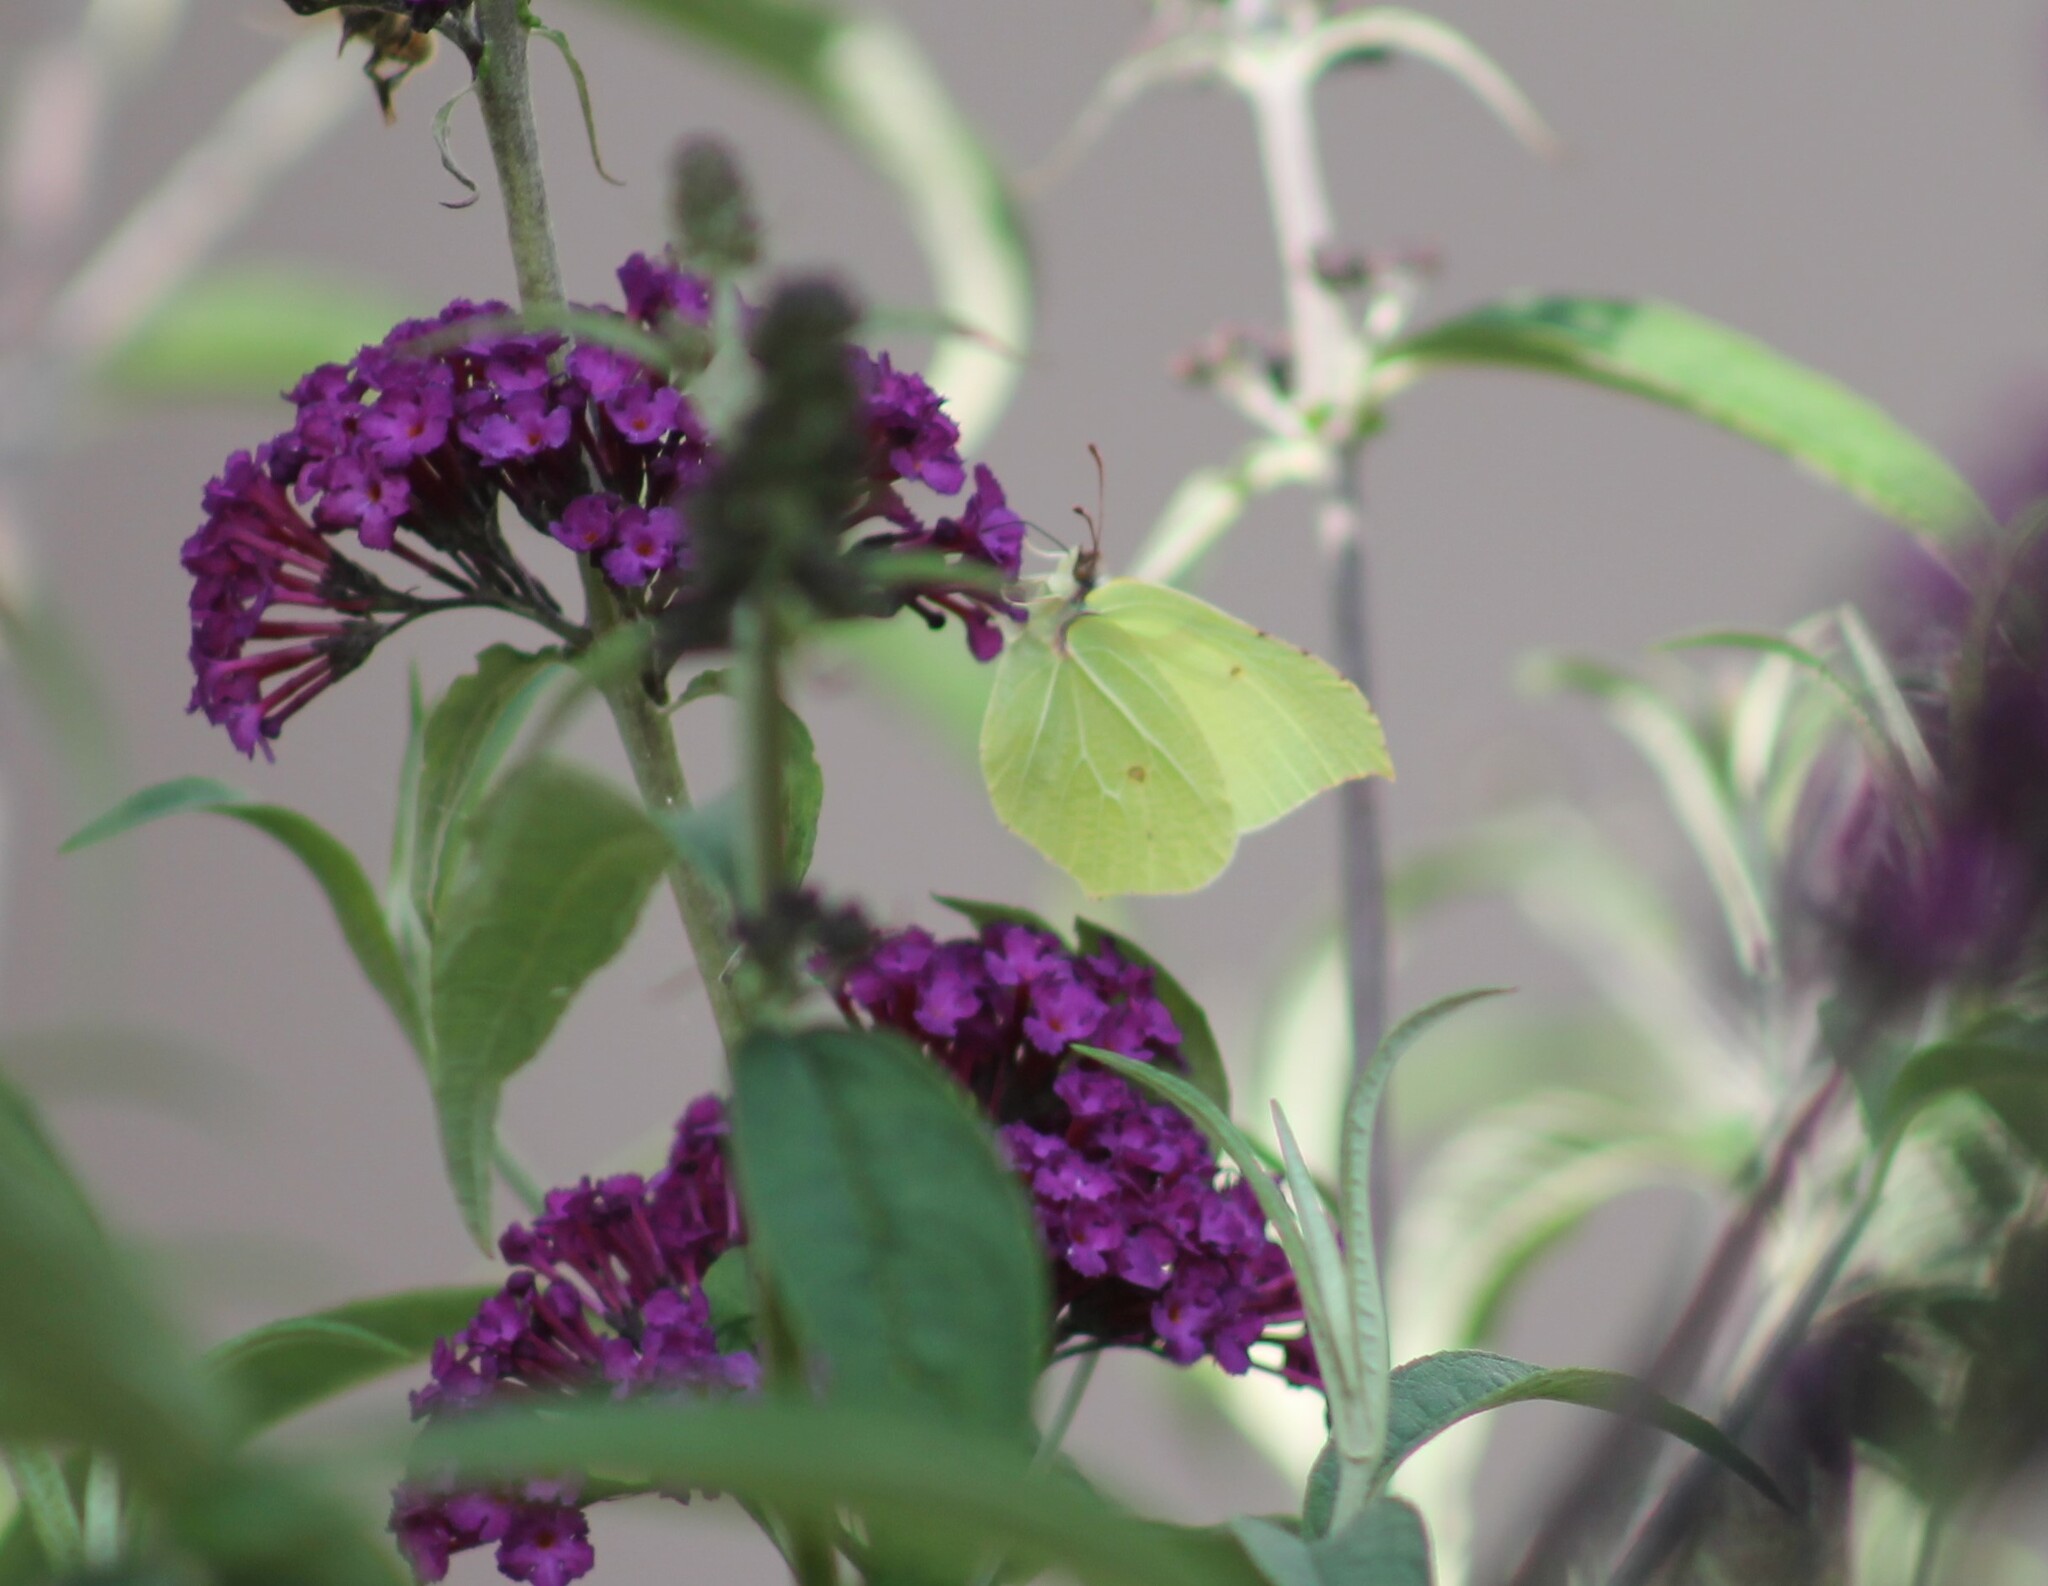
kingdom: Animalia
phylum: Arthropoda
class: Insecta
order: Lepidoptera
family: Pieridae
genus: Gonepteryx
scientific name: Gonepteryx rhamni
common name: Brimstone
